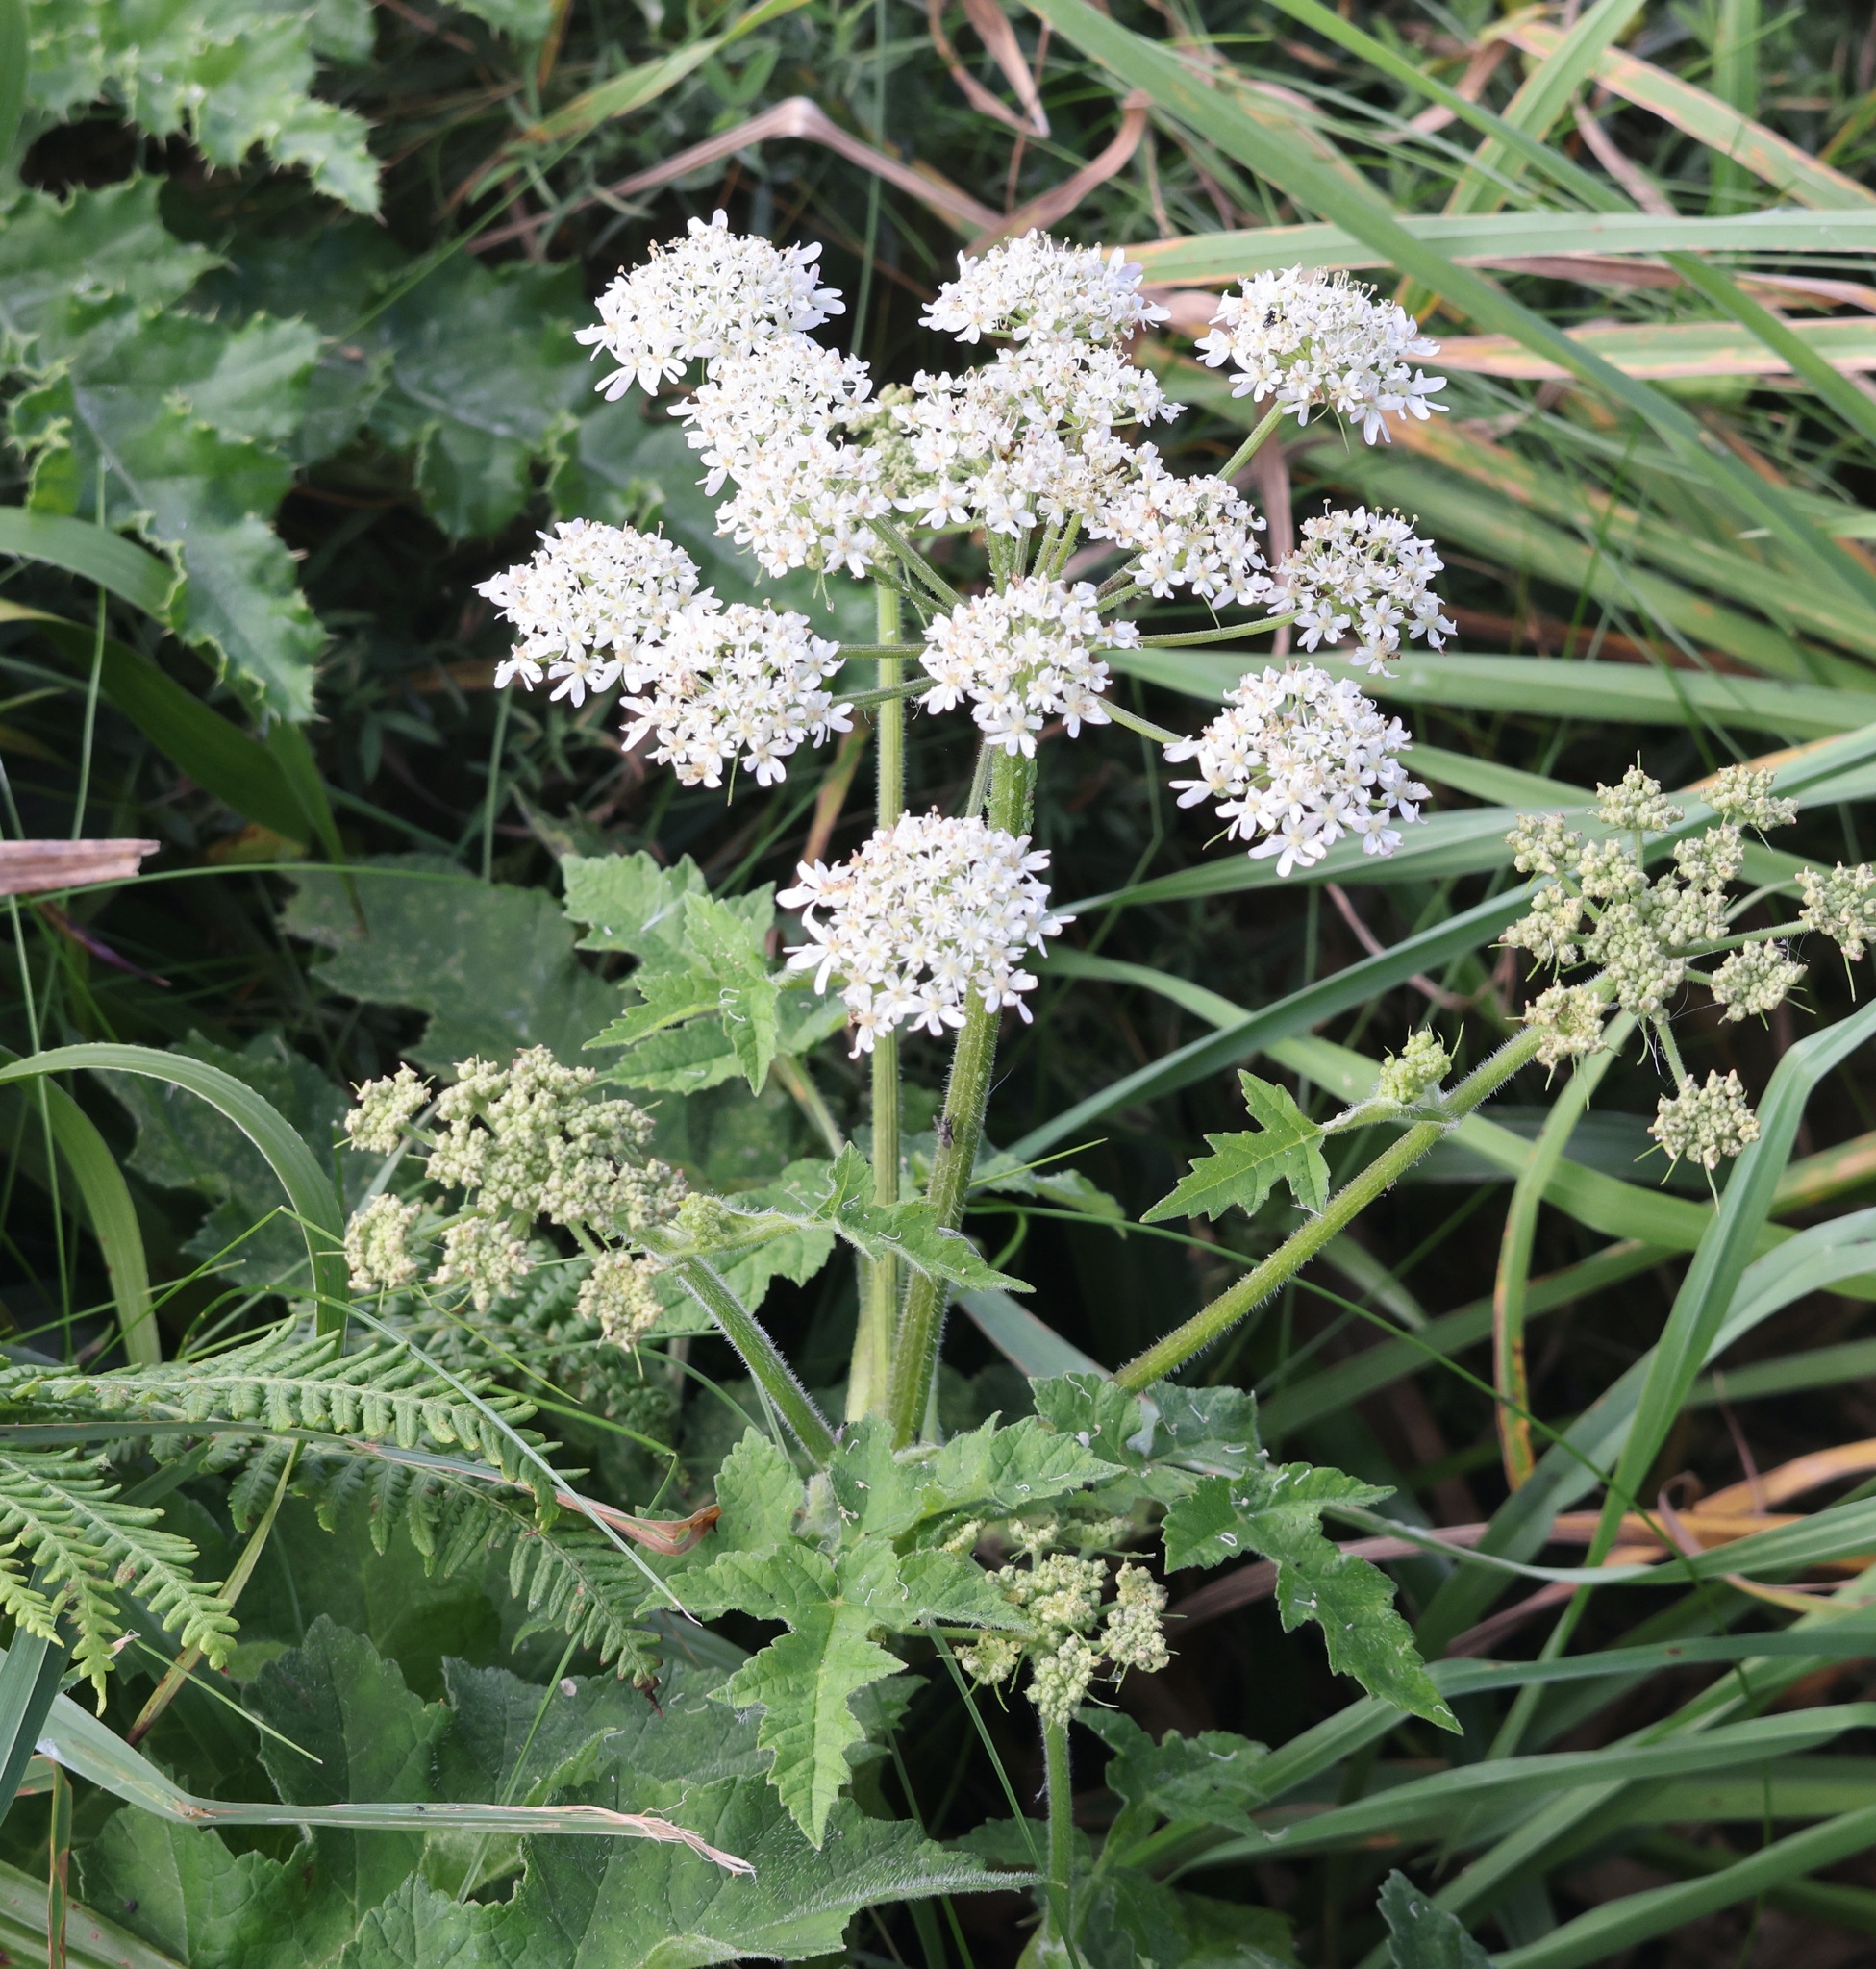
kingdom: Plantae
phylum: Tracheophyta
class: Magnoliopsida
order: Apiales
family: Apiaceae
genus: Heracleum
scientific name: Heracleum sphondylium
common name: Hogweed
